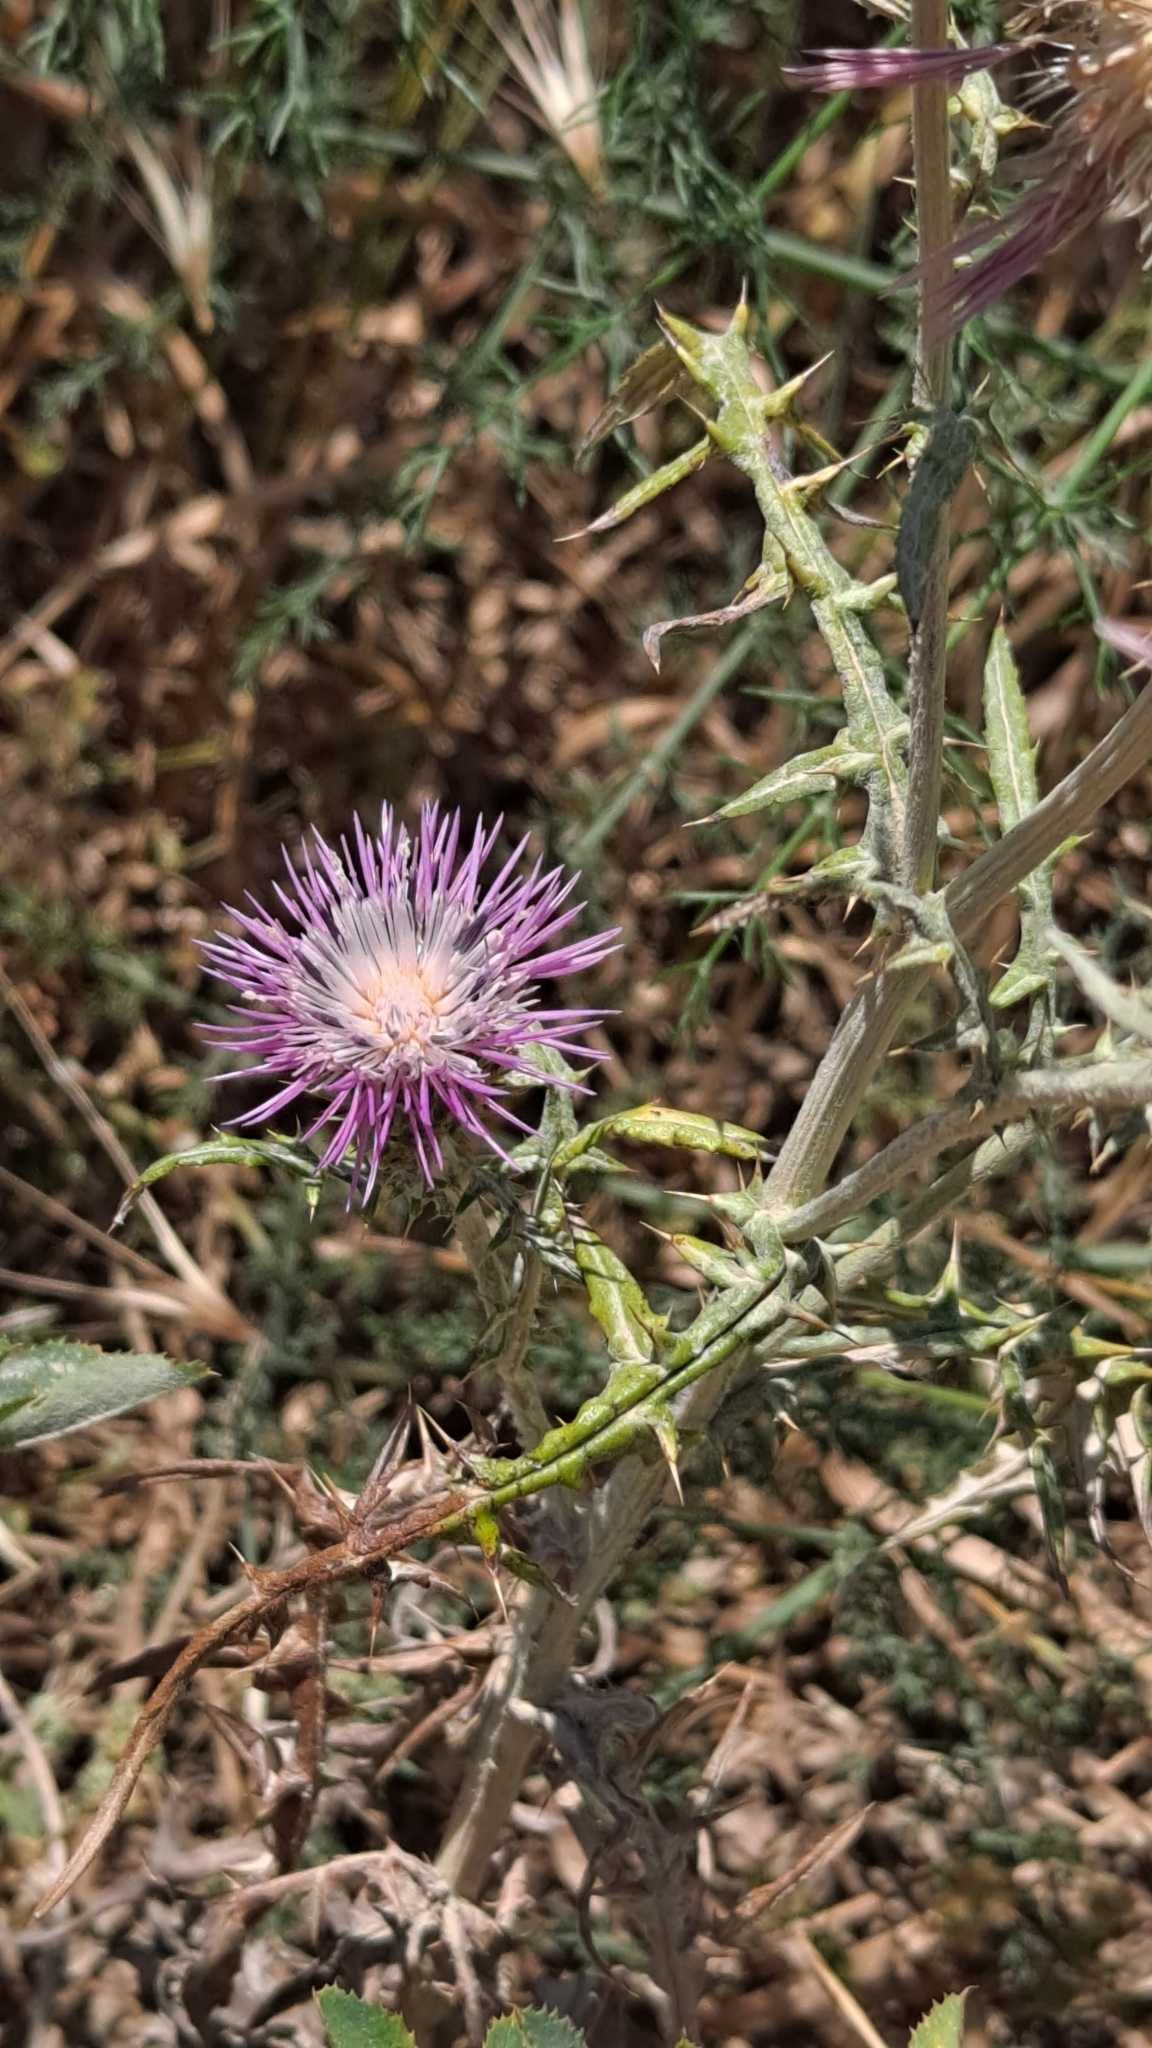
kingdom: Plantae
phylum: Tracheophyta
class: Magnoliopsida
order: Asterales
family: Asteraceae
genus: Galactites
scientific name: Galactites tomentosa
